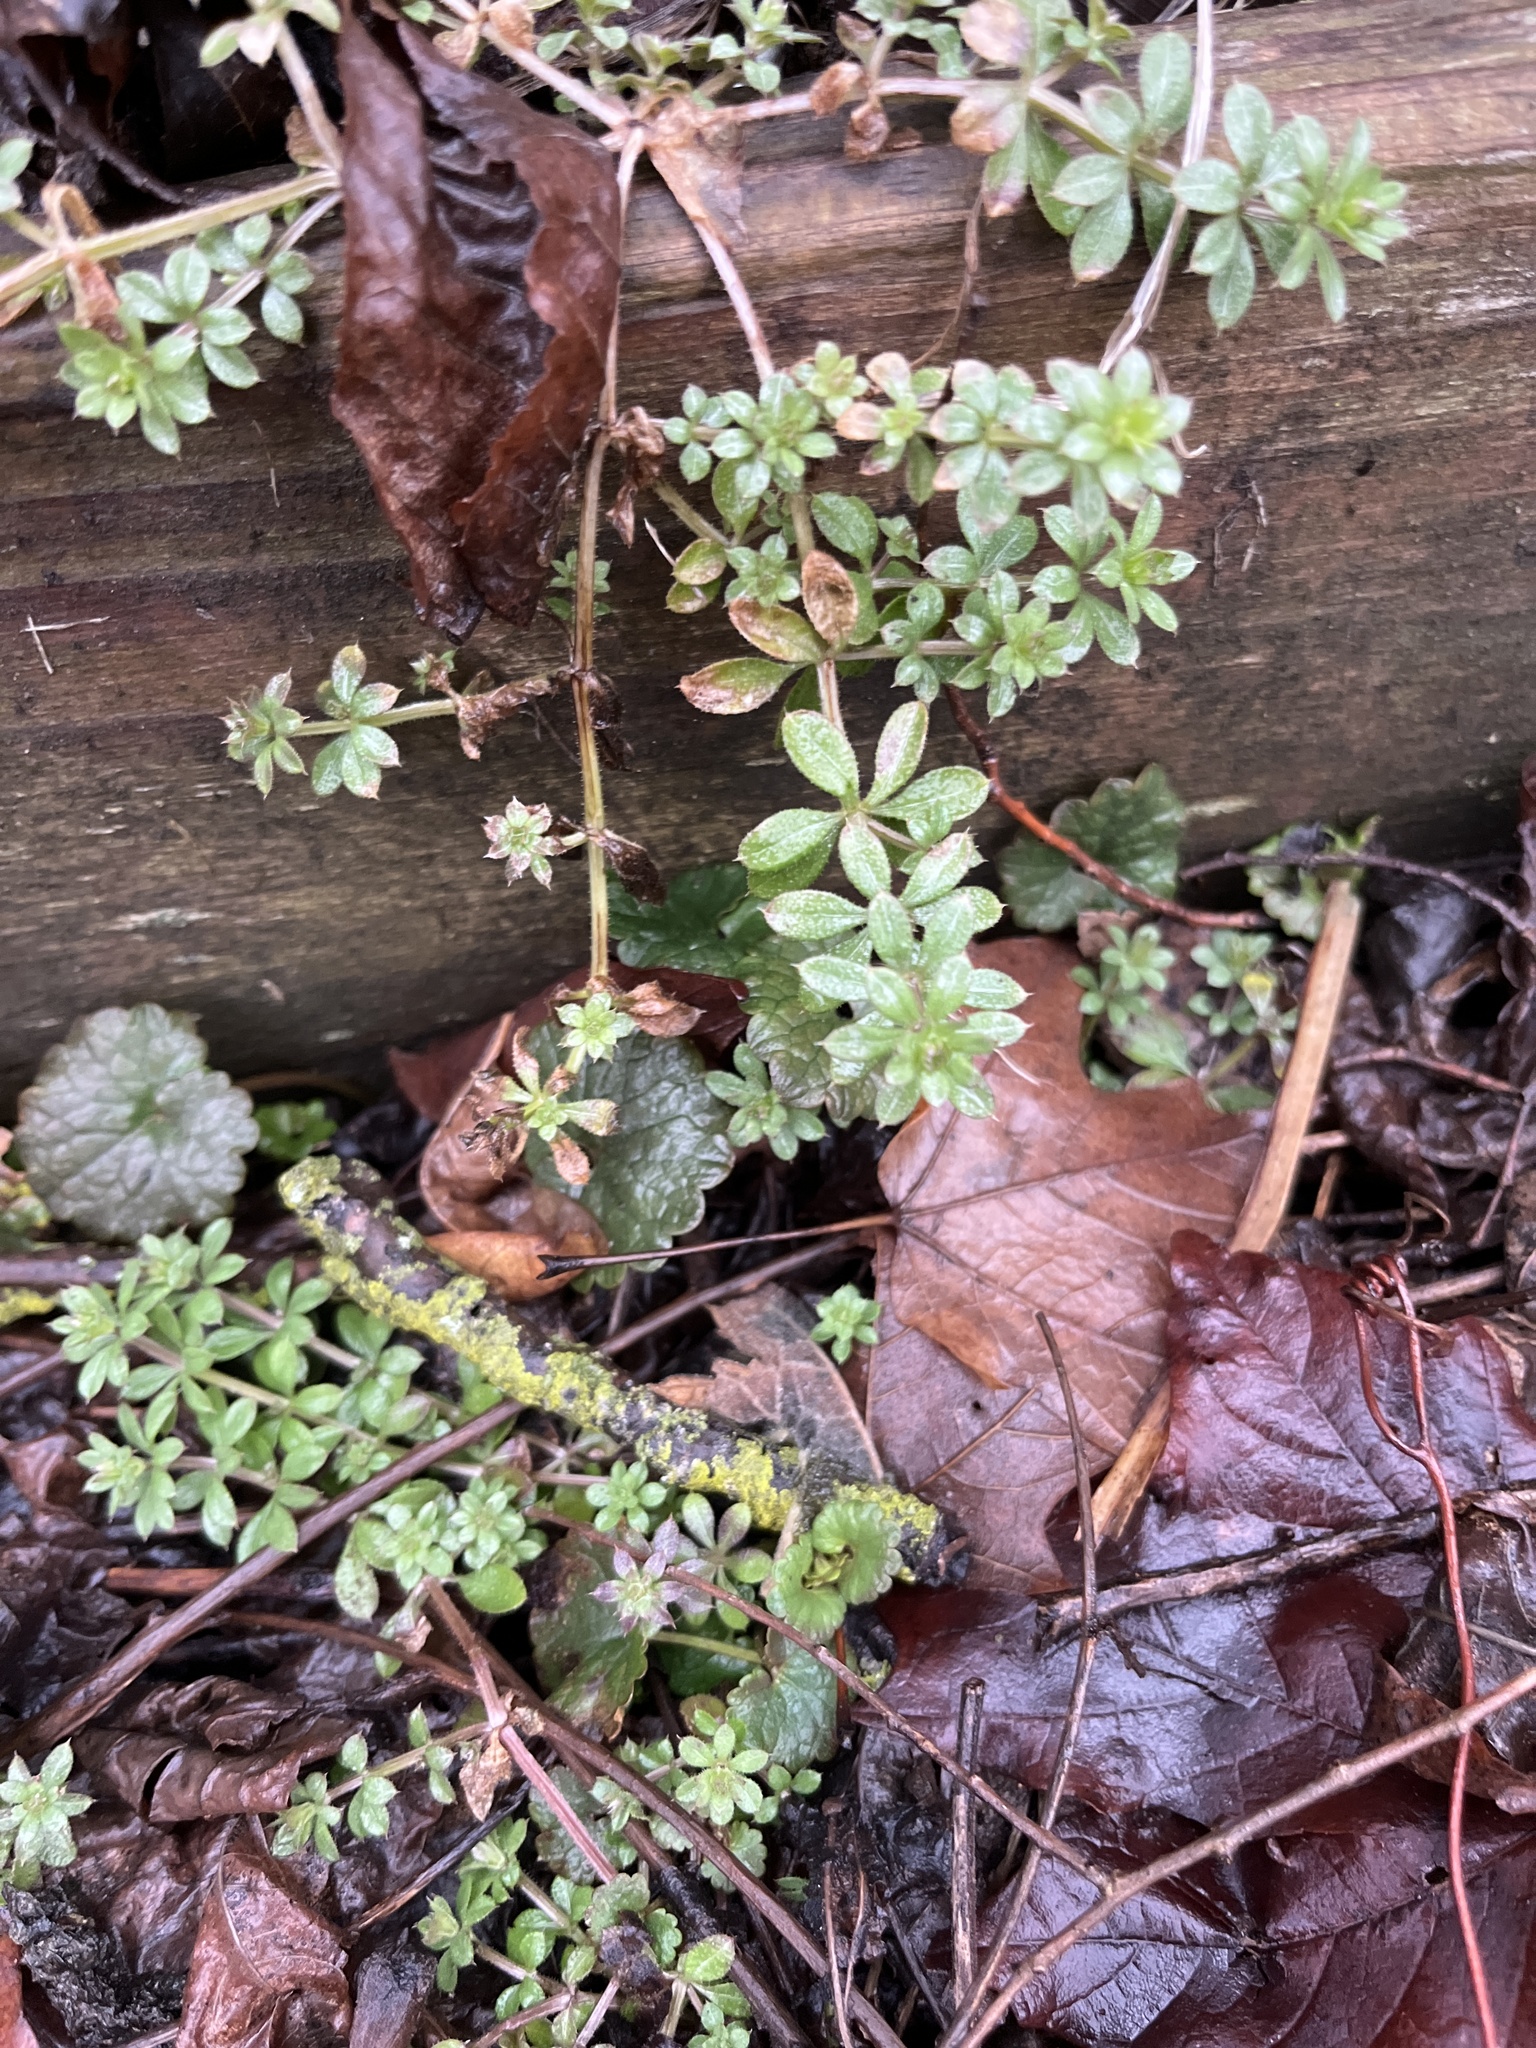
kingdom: Plantae
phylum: Tracheophyta
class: Magnoliopsida
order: Gentianales
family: Rubiaceae
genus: Galium
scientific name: Galium aparine
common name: Cleavers
